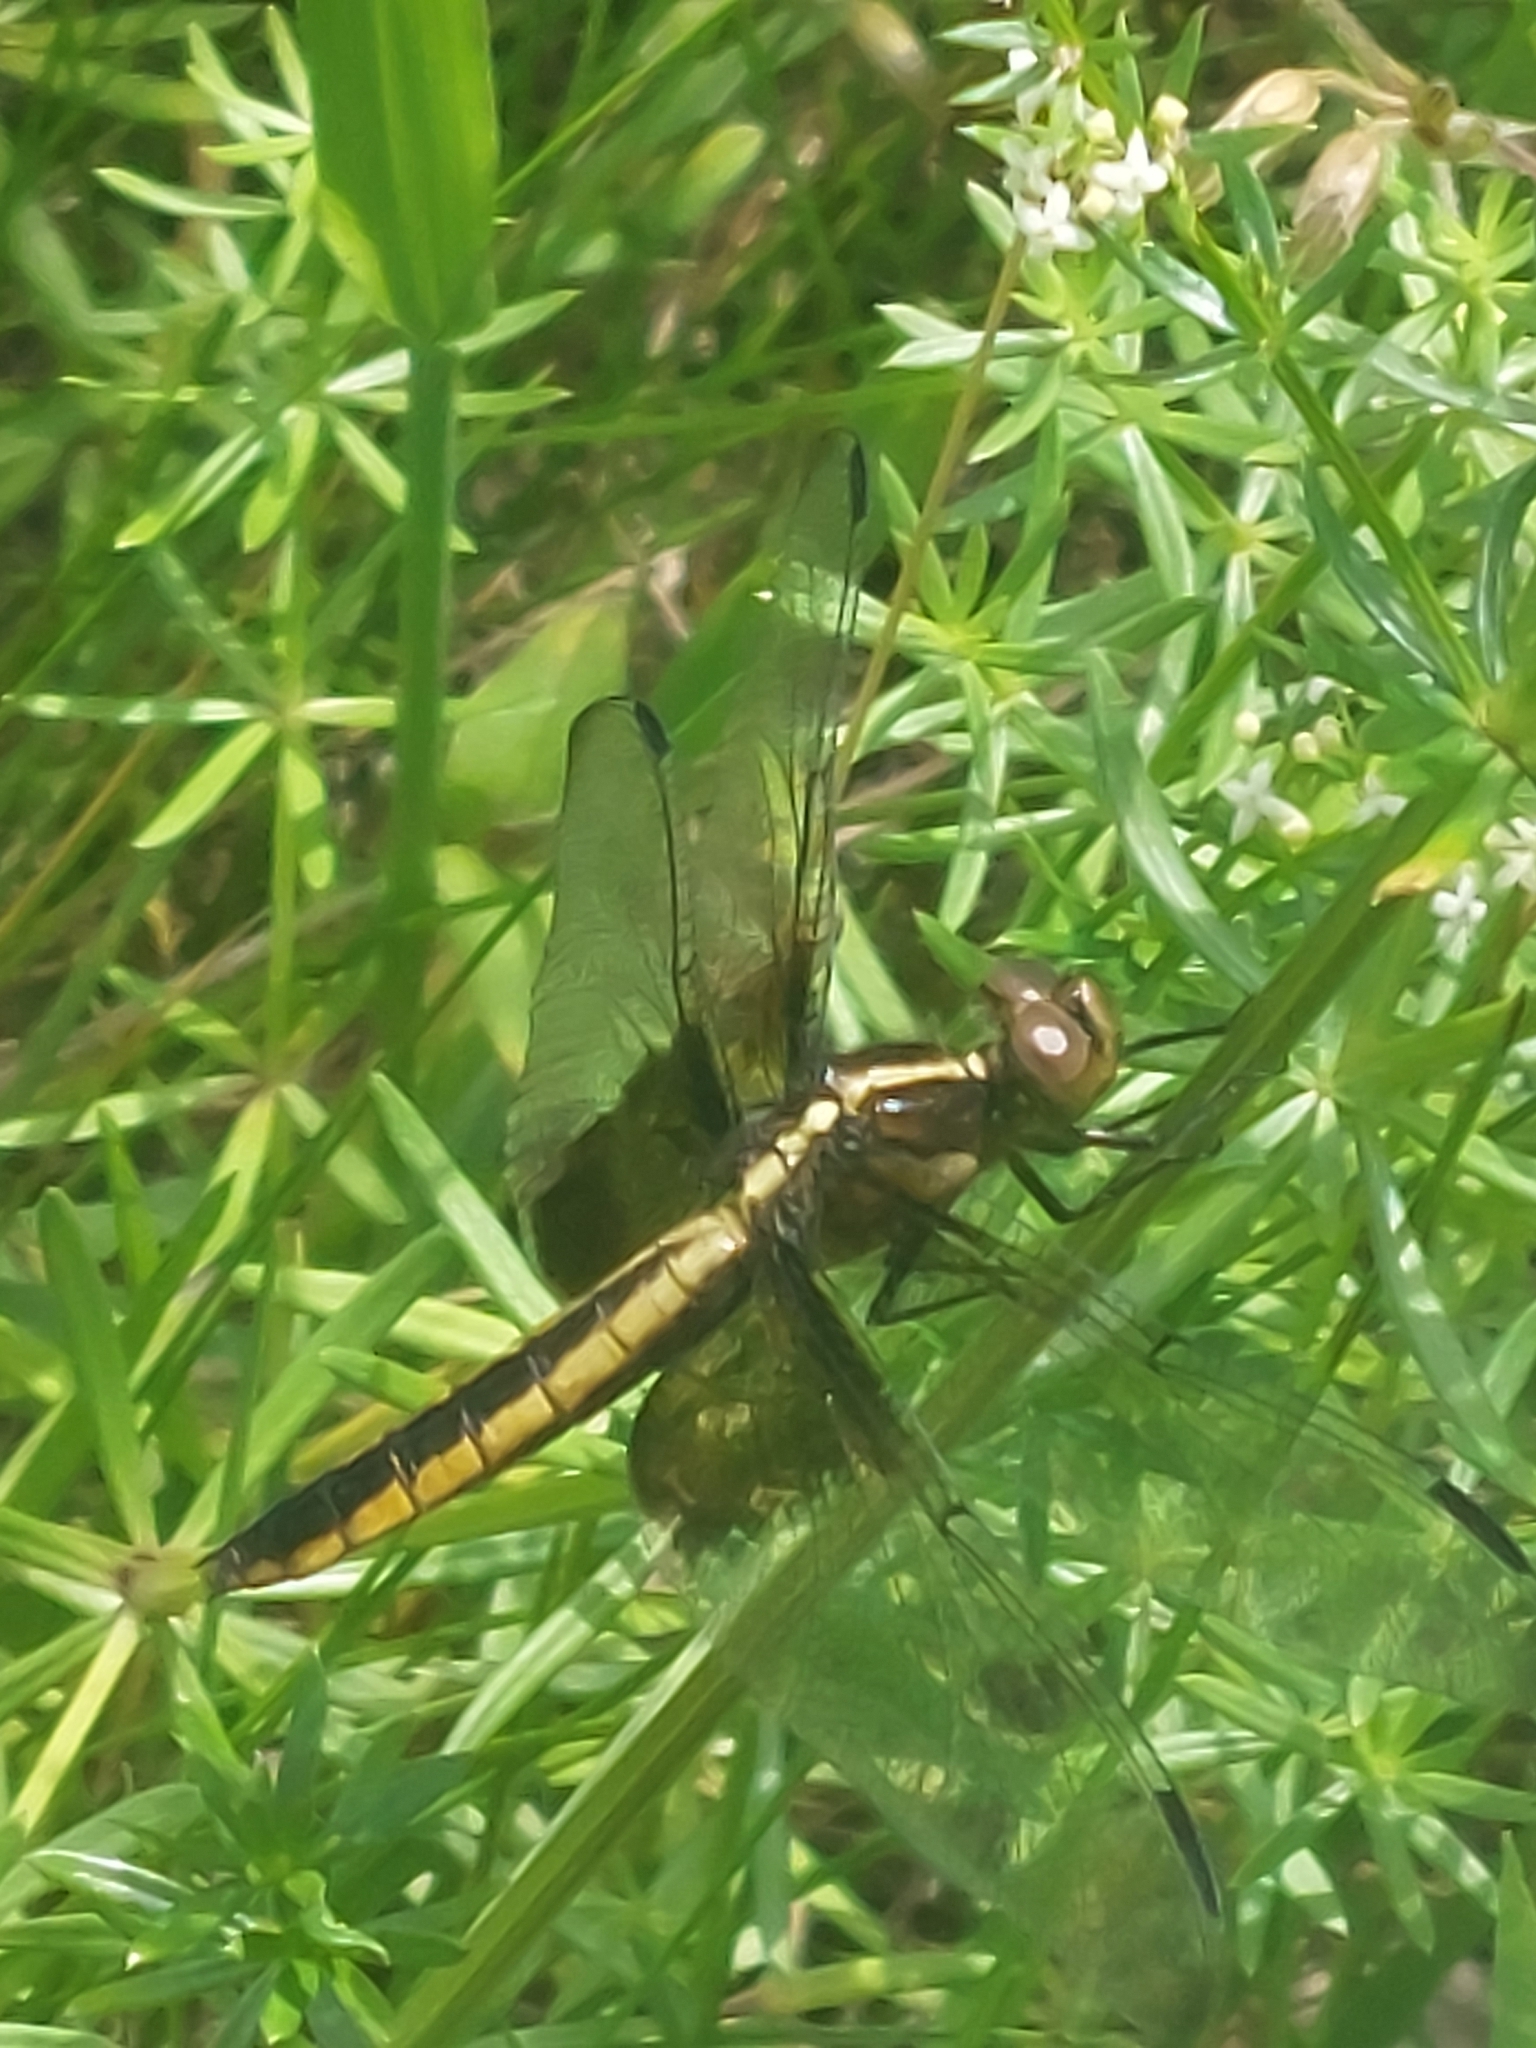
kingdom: Animalia
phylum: Arthropoda
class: Insecta
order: Odonata
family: Libellulidae
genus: Libellula
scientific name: Libellula luctuosa
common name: Widow skimmer
